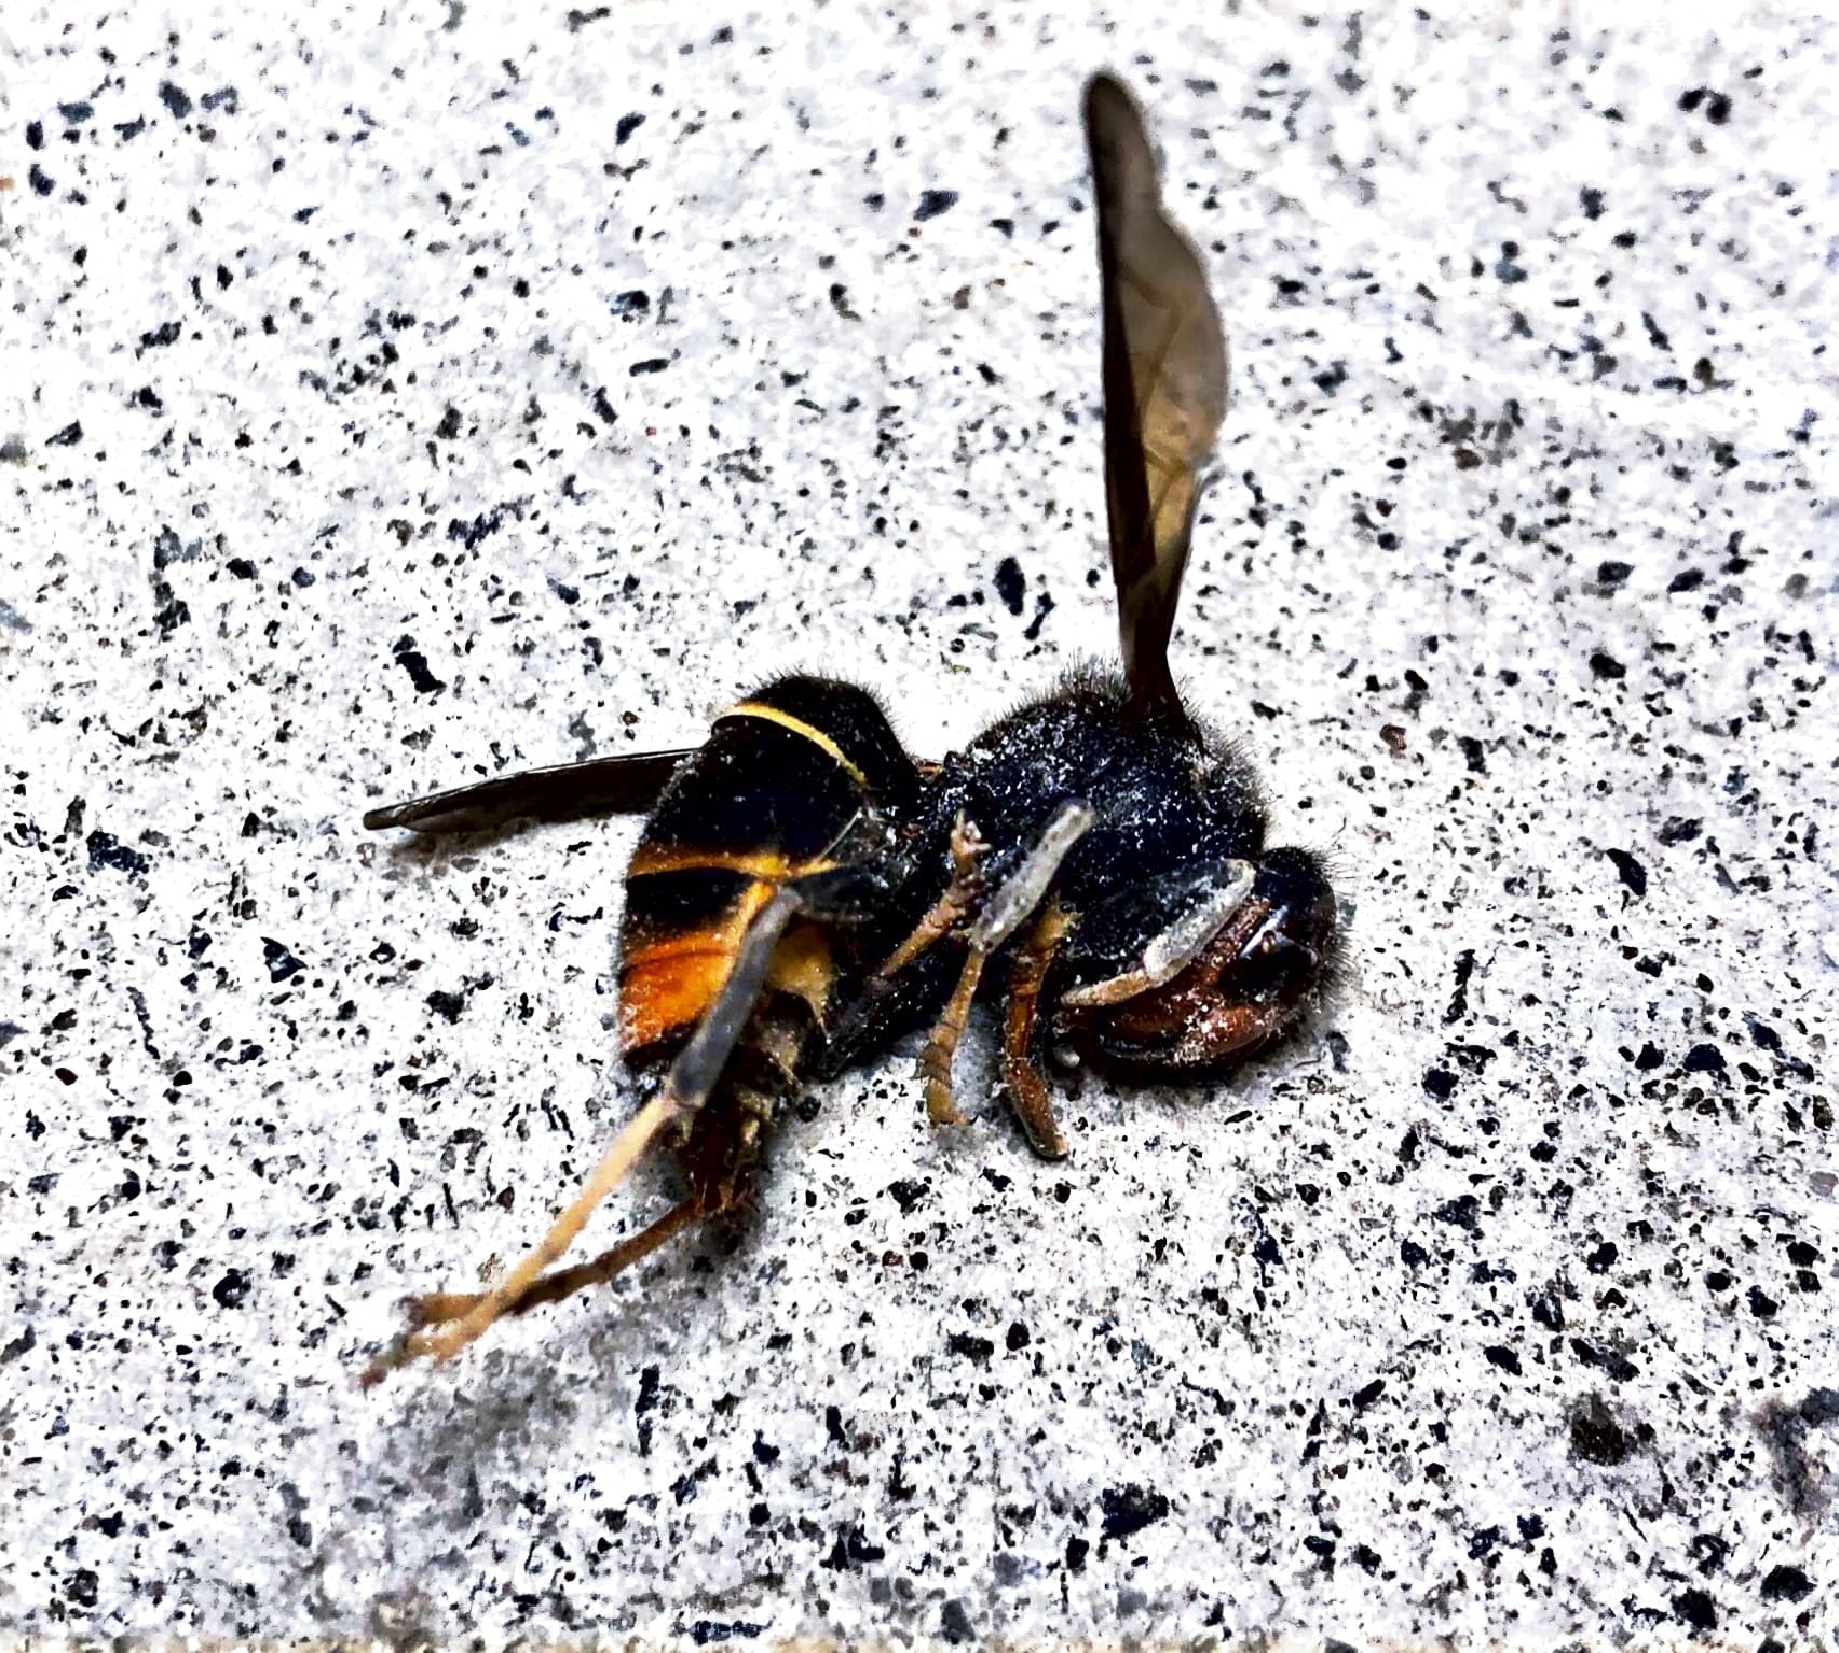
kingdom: Animalia
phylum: Arthropoda
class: Insecta
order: Hymenoptera
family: Vespidae
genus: Vespa
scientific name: Vespa velutina
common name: Asian hornet
